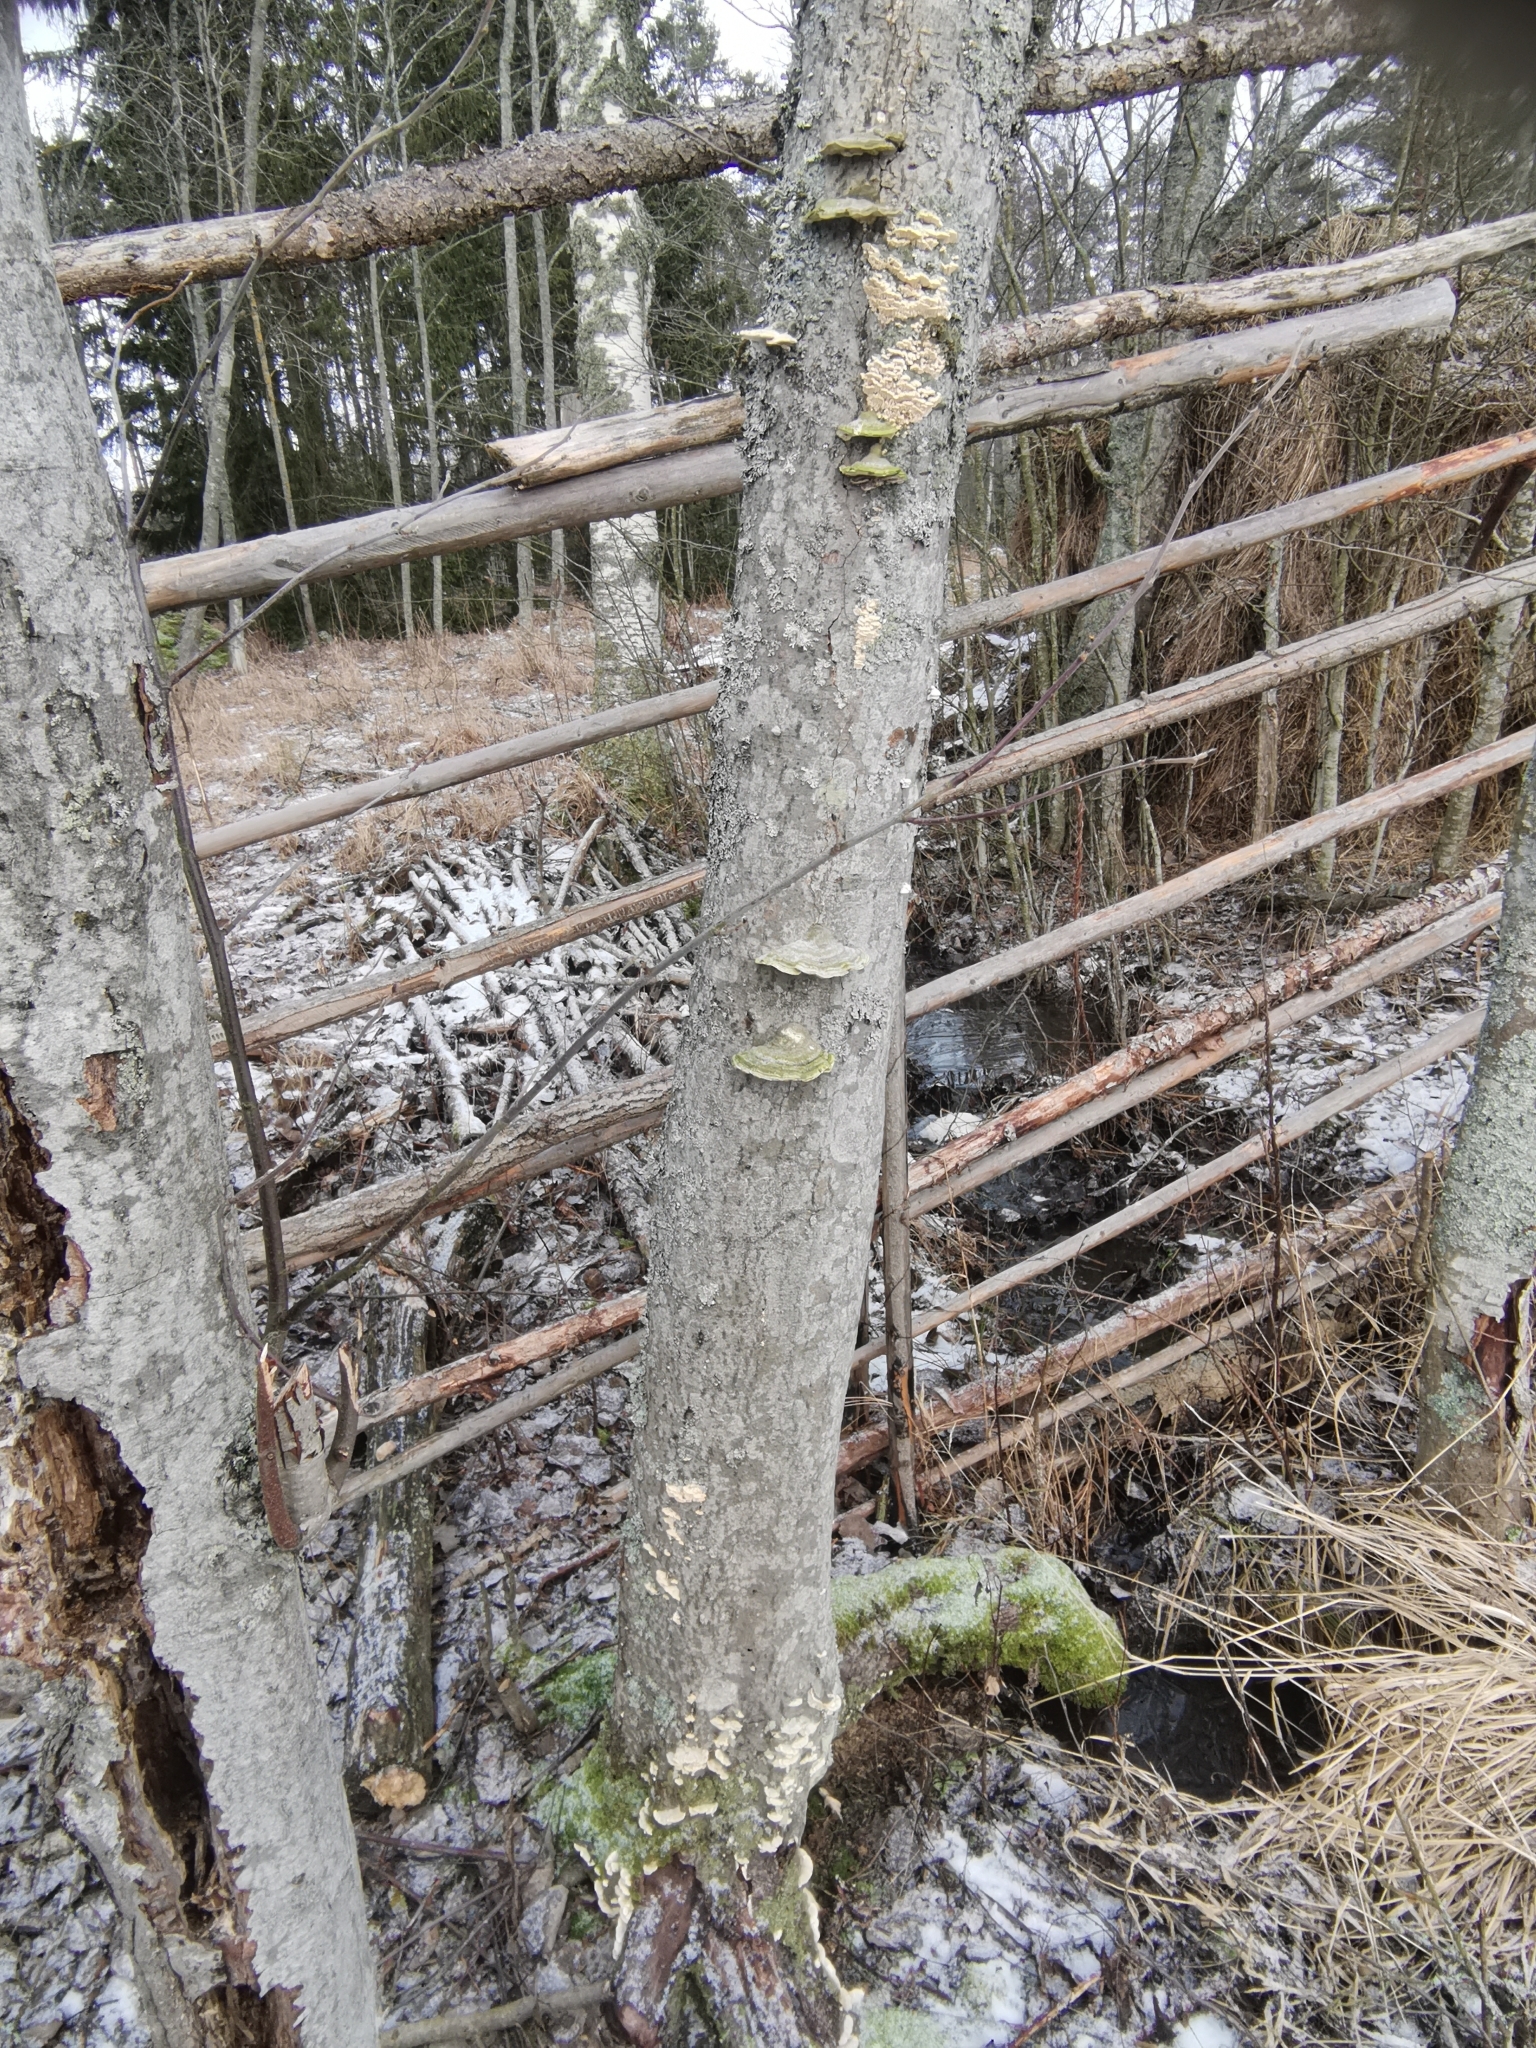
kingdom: Fungi
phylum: Basidiomycota
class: Agaricomycetes
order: Polyporales
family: Polyporaceae
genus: Trametes
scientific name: Trametes hirsuta
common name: Hairy bracket
